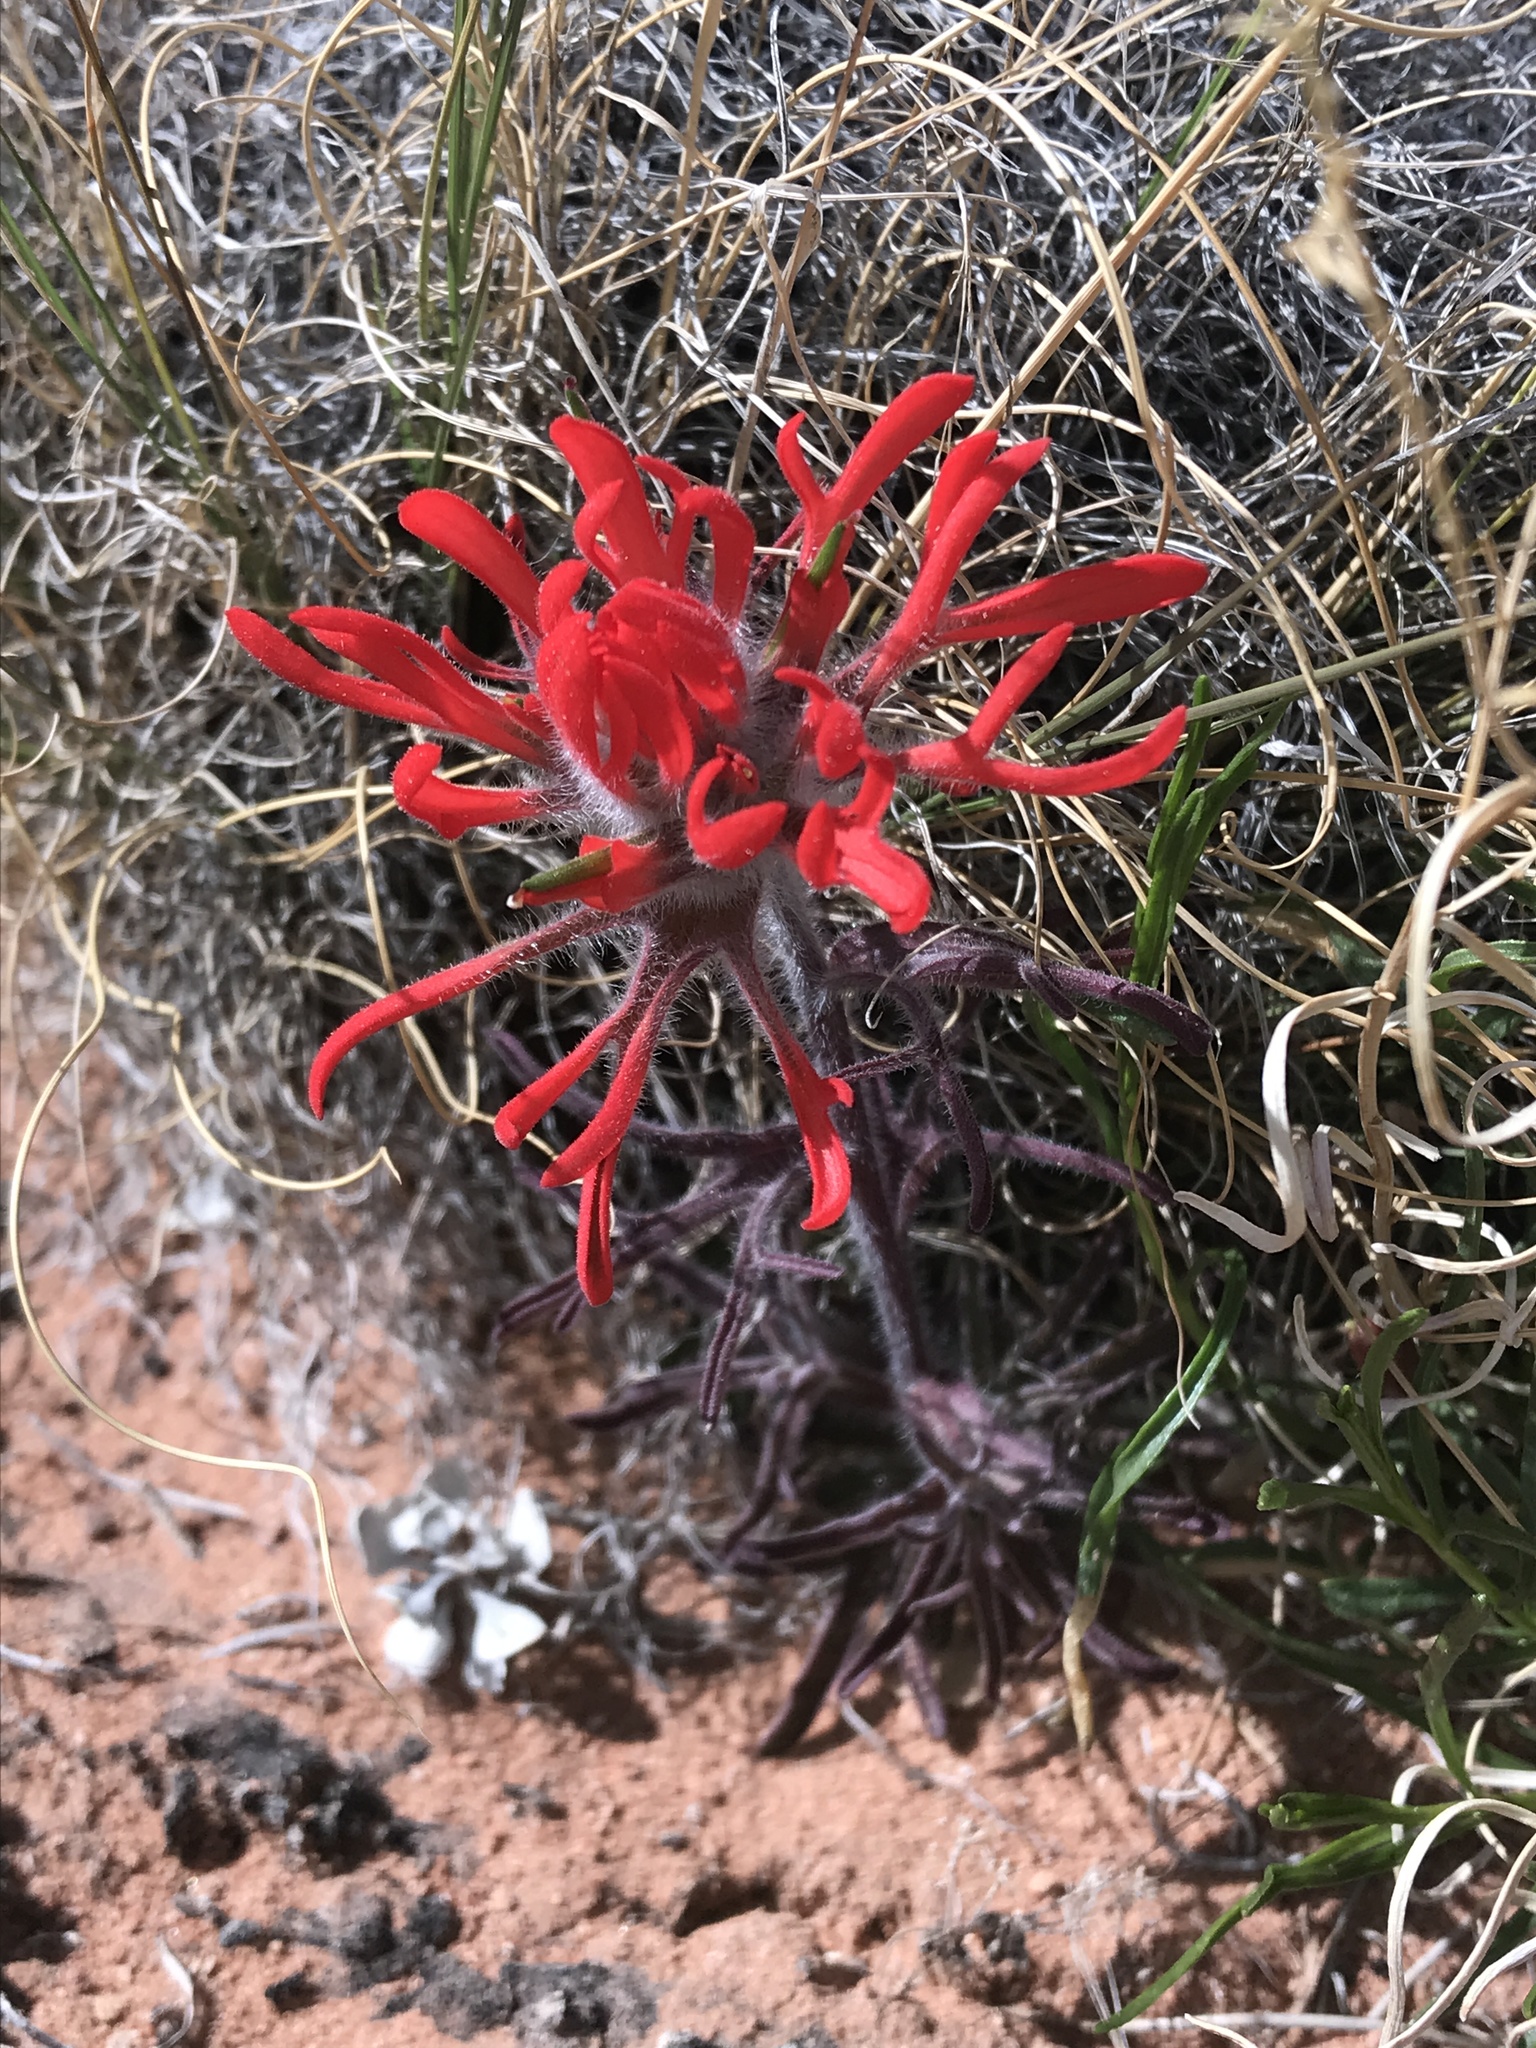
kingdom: Plantae
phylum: Tracheophyta
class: Magnoliopsida
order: Lamiales
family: Orobanchaceae
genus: Castilleja
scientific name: Castilleja chromosa
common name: Desert paintbrush
